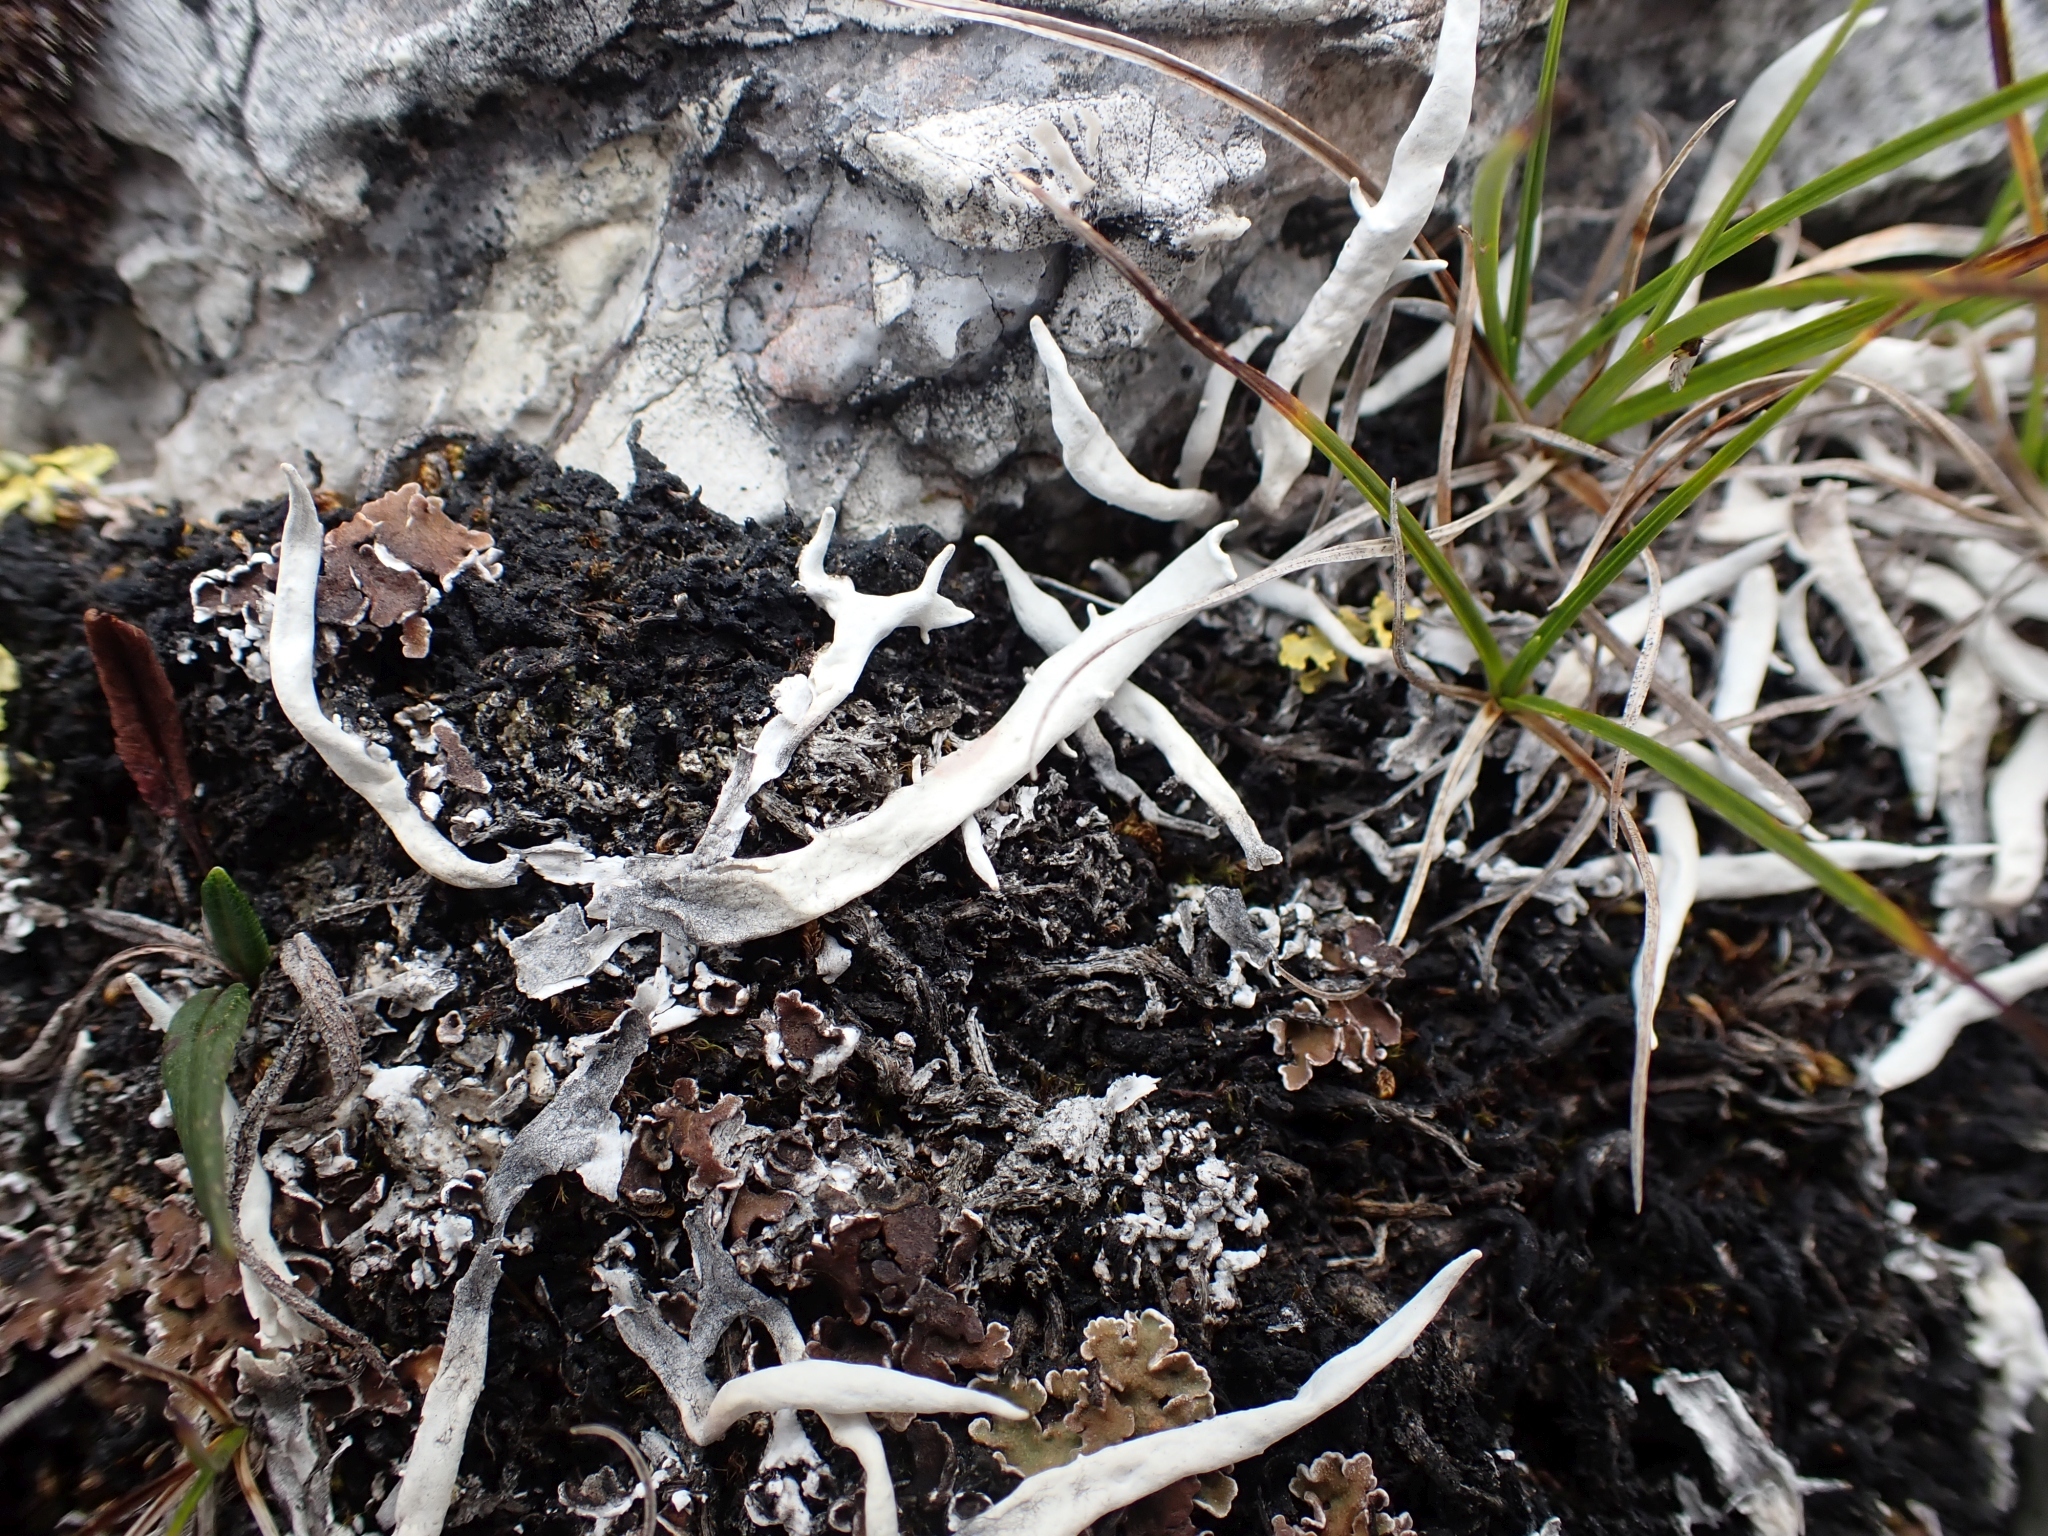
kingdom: Fungi
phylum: Ascomycota
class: Lecanoromycetes
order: Pertusariales
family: Icmadophilaceae
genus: Thamnolia
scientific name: Thamnolia vermicularis
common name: Whiteworm lichen
